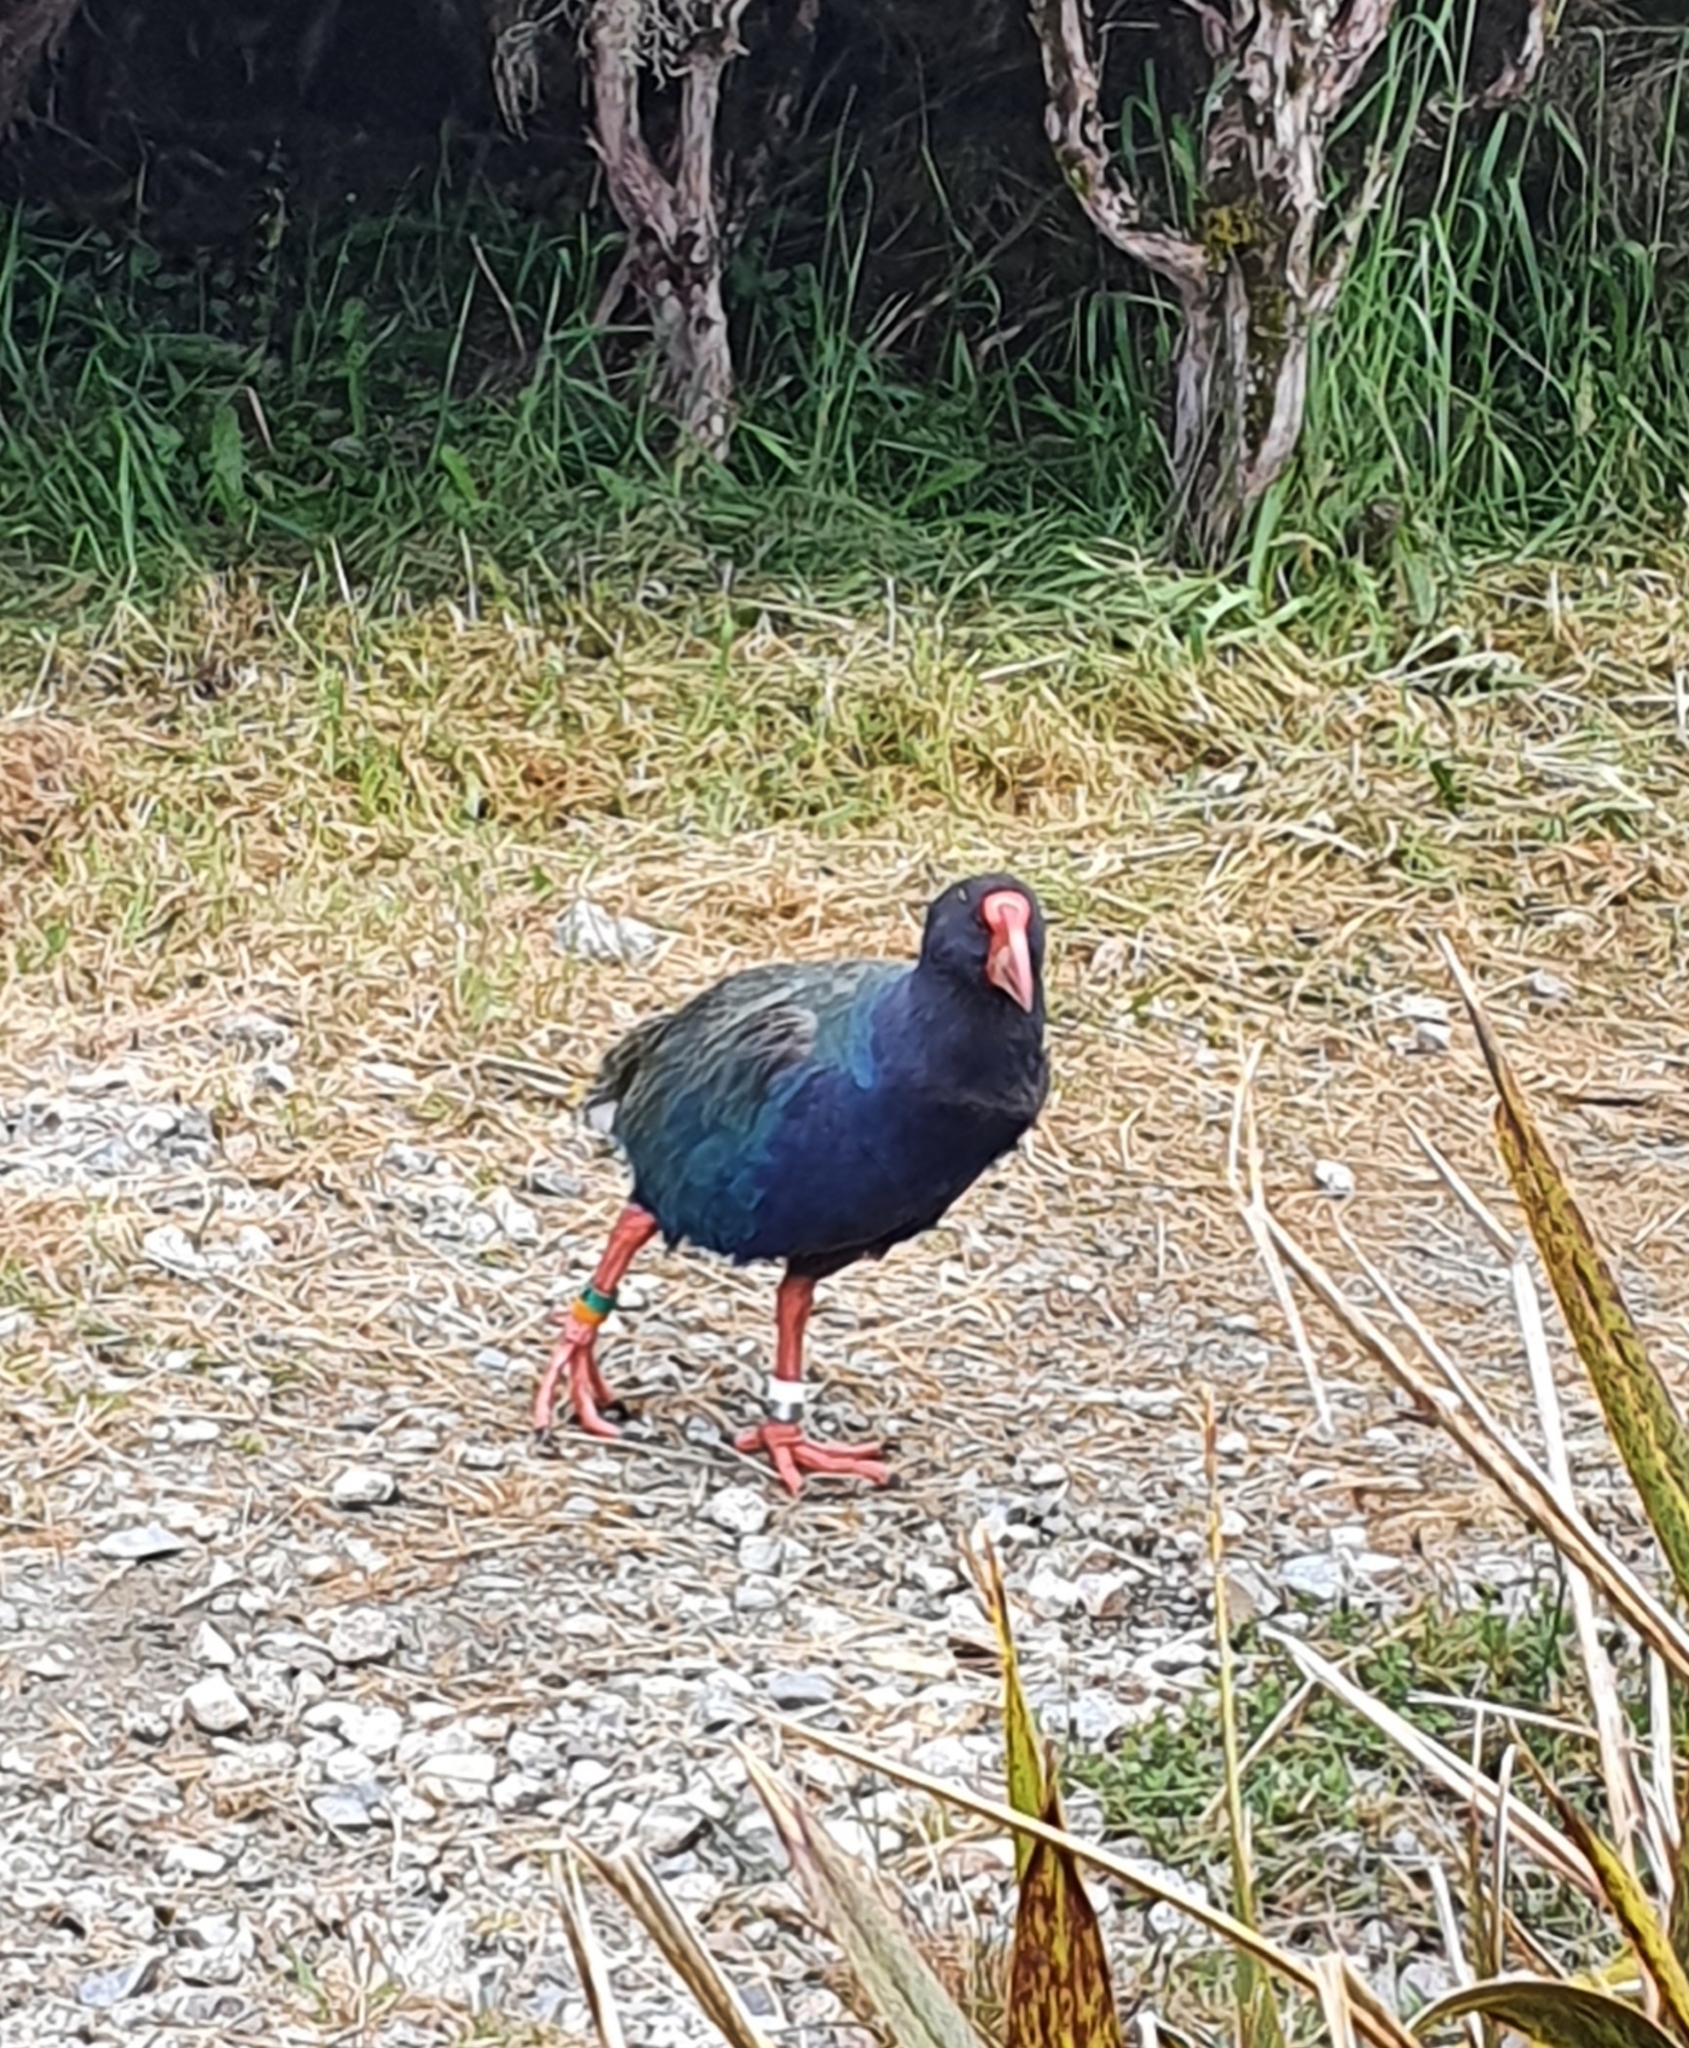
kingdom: Animalia
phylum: Chordata
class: Aves
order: Gruiformes
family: Rallidae
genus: Porphyrio
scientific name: Porphyrio hochstetteri
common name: South island takahe
